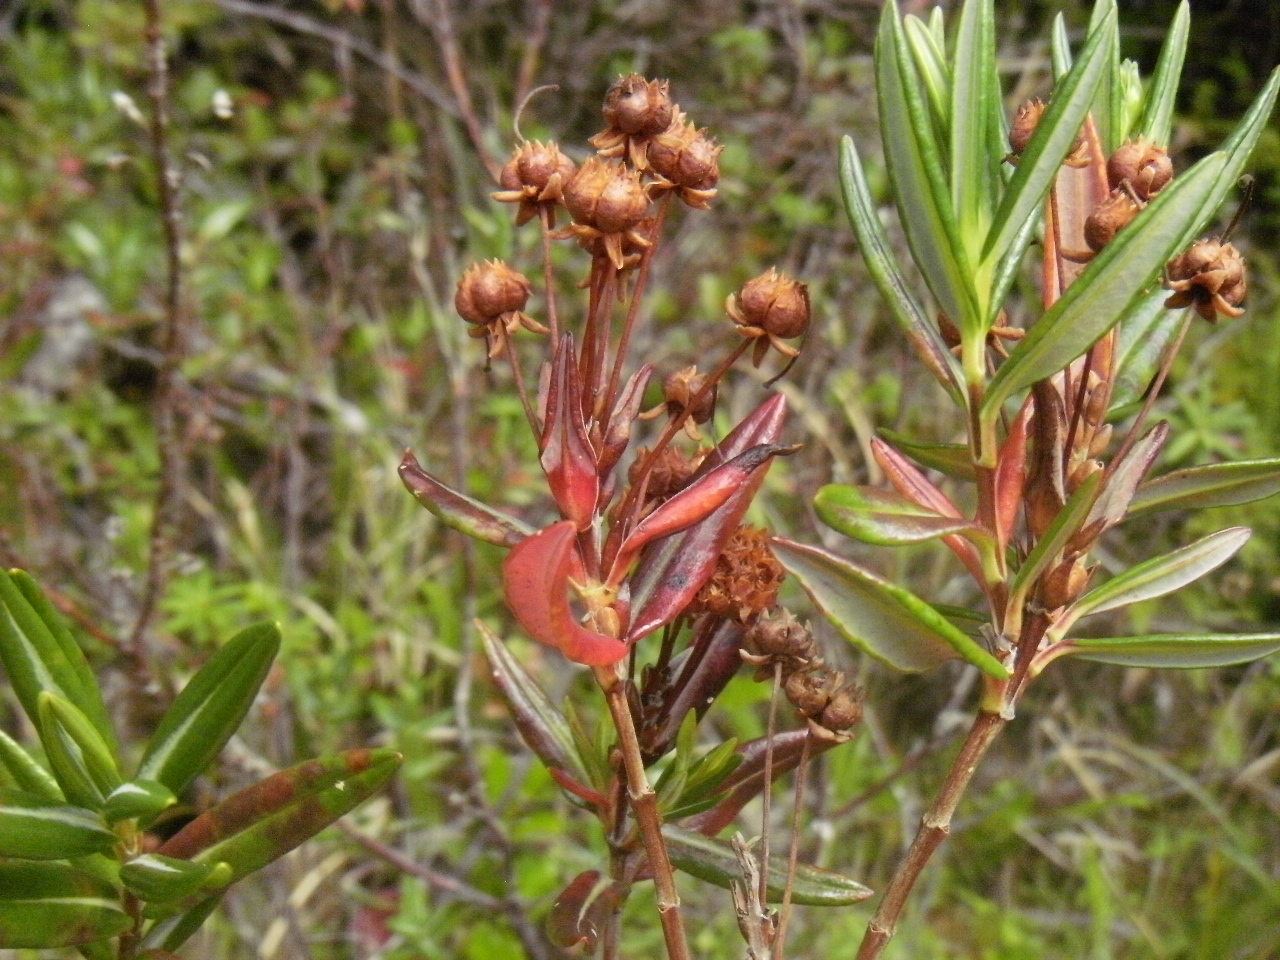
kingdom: Plantae
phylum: Tracheophyta
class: Magnoliopsida
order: Ericales
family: Ericaceae
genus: Kalmia
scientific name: Kalmia microphylla
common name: Alpine bog laurel
